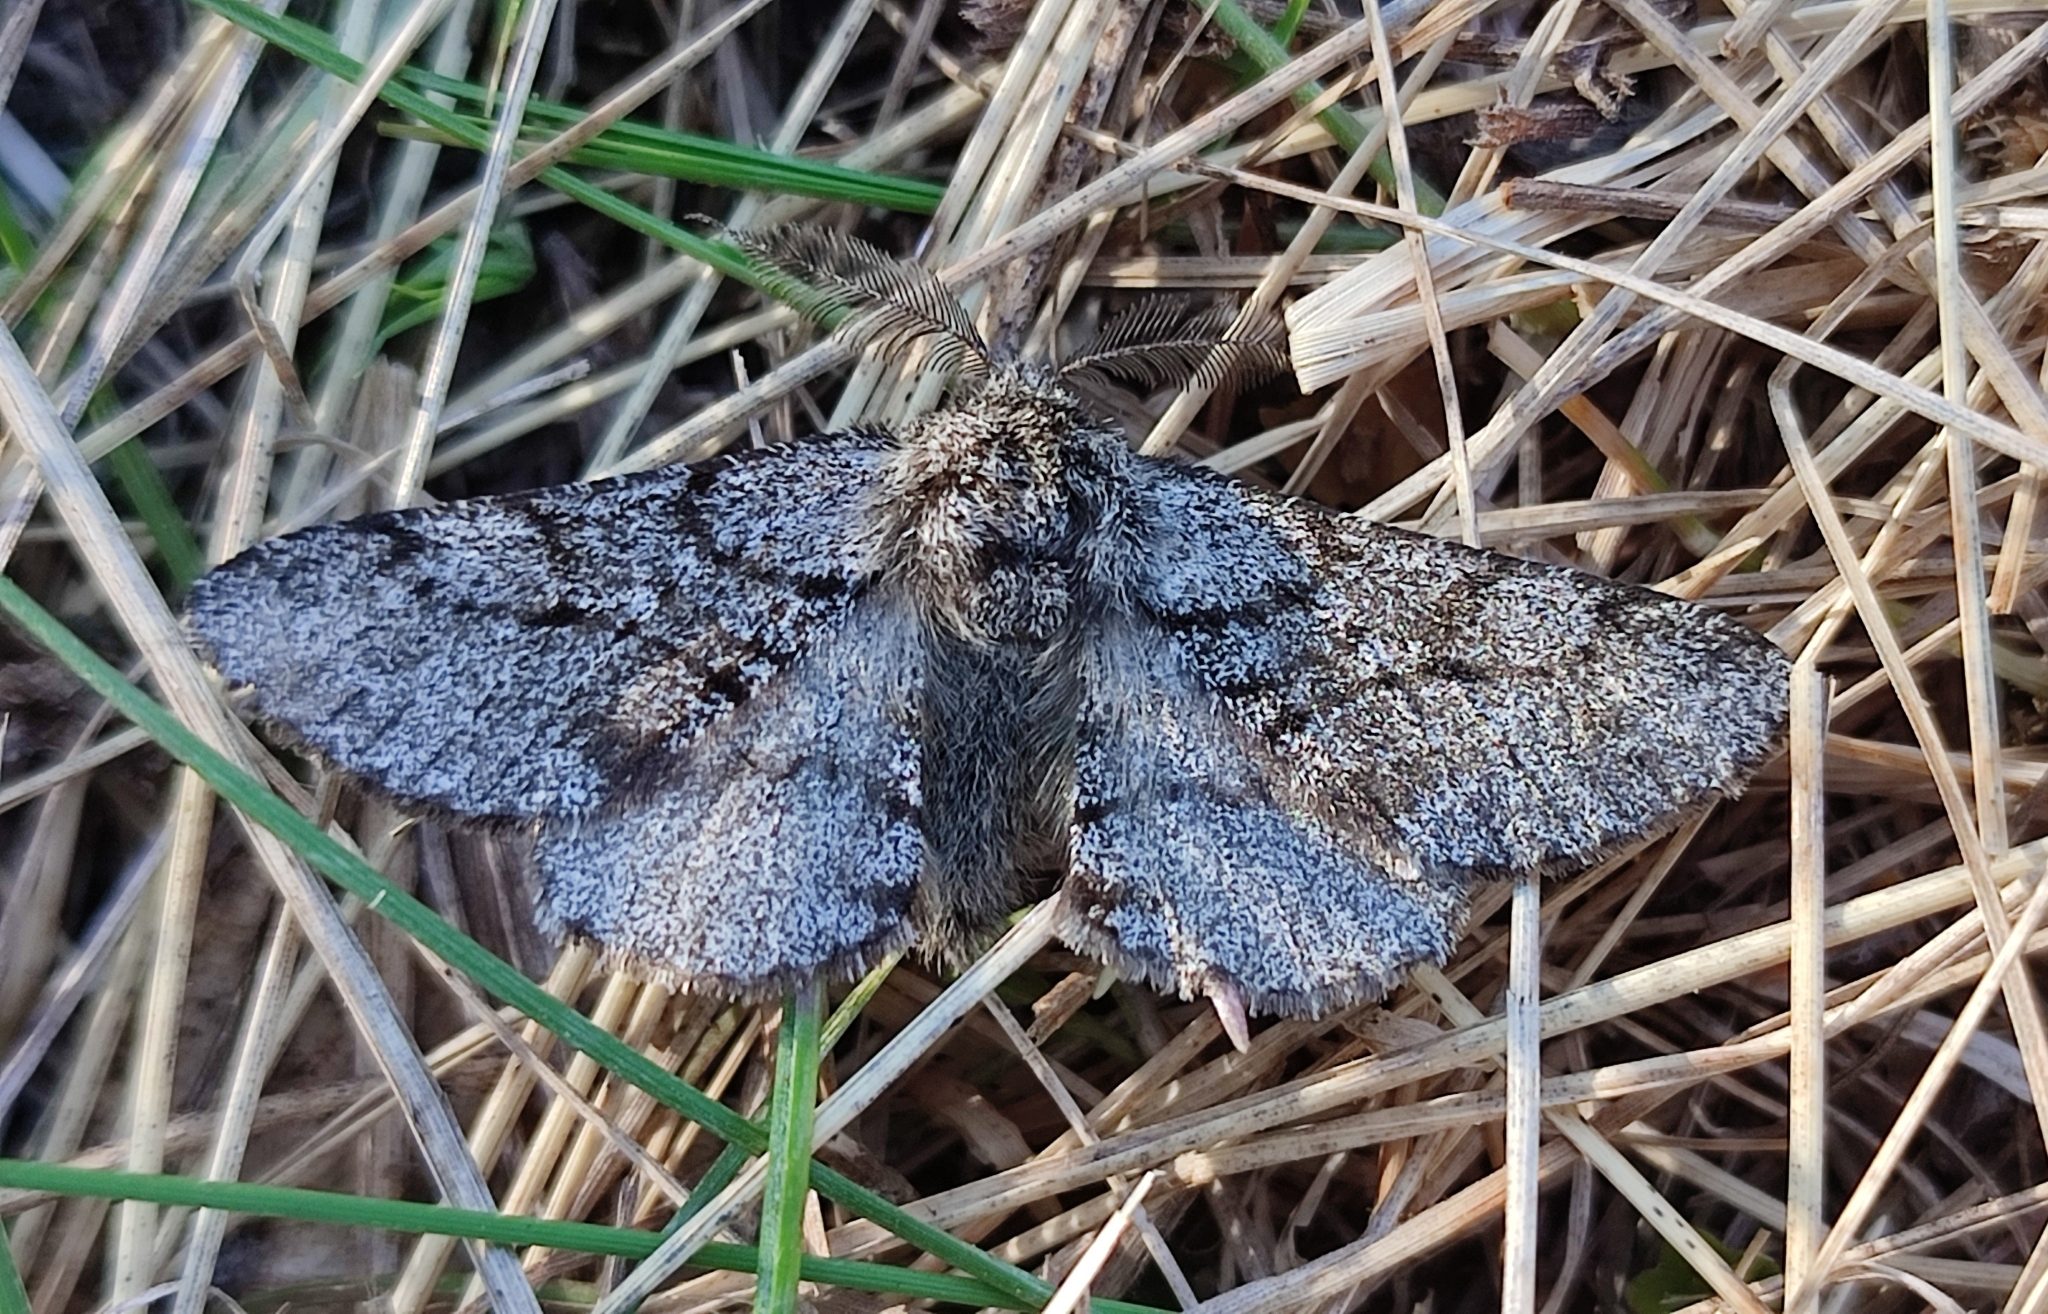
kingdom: Animalia
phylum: Arthropoda
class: Insecta
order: Lepidoptera
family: Geometridae
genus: Lycia
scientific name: Lycia hirtaria
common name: Brindled beauty
